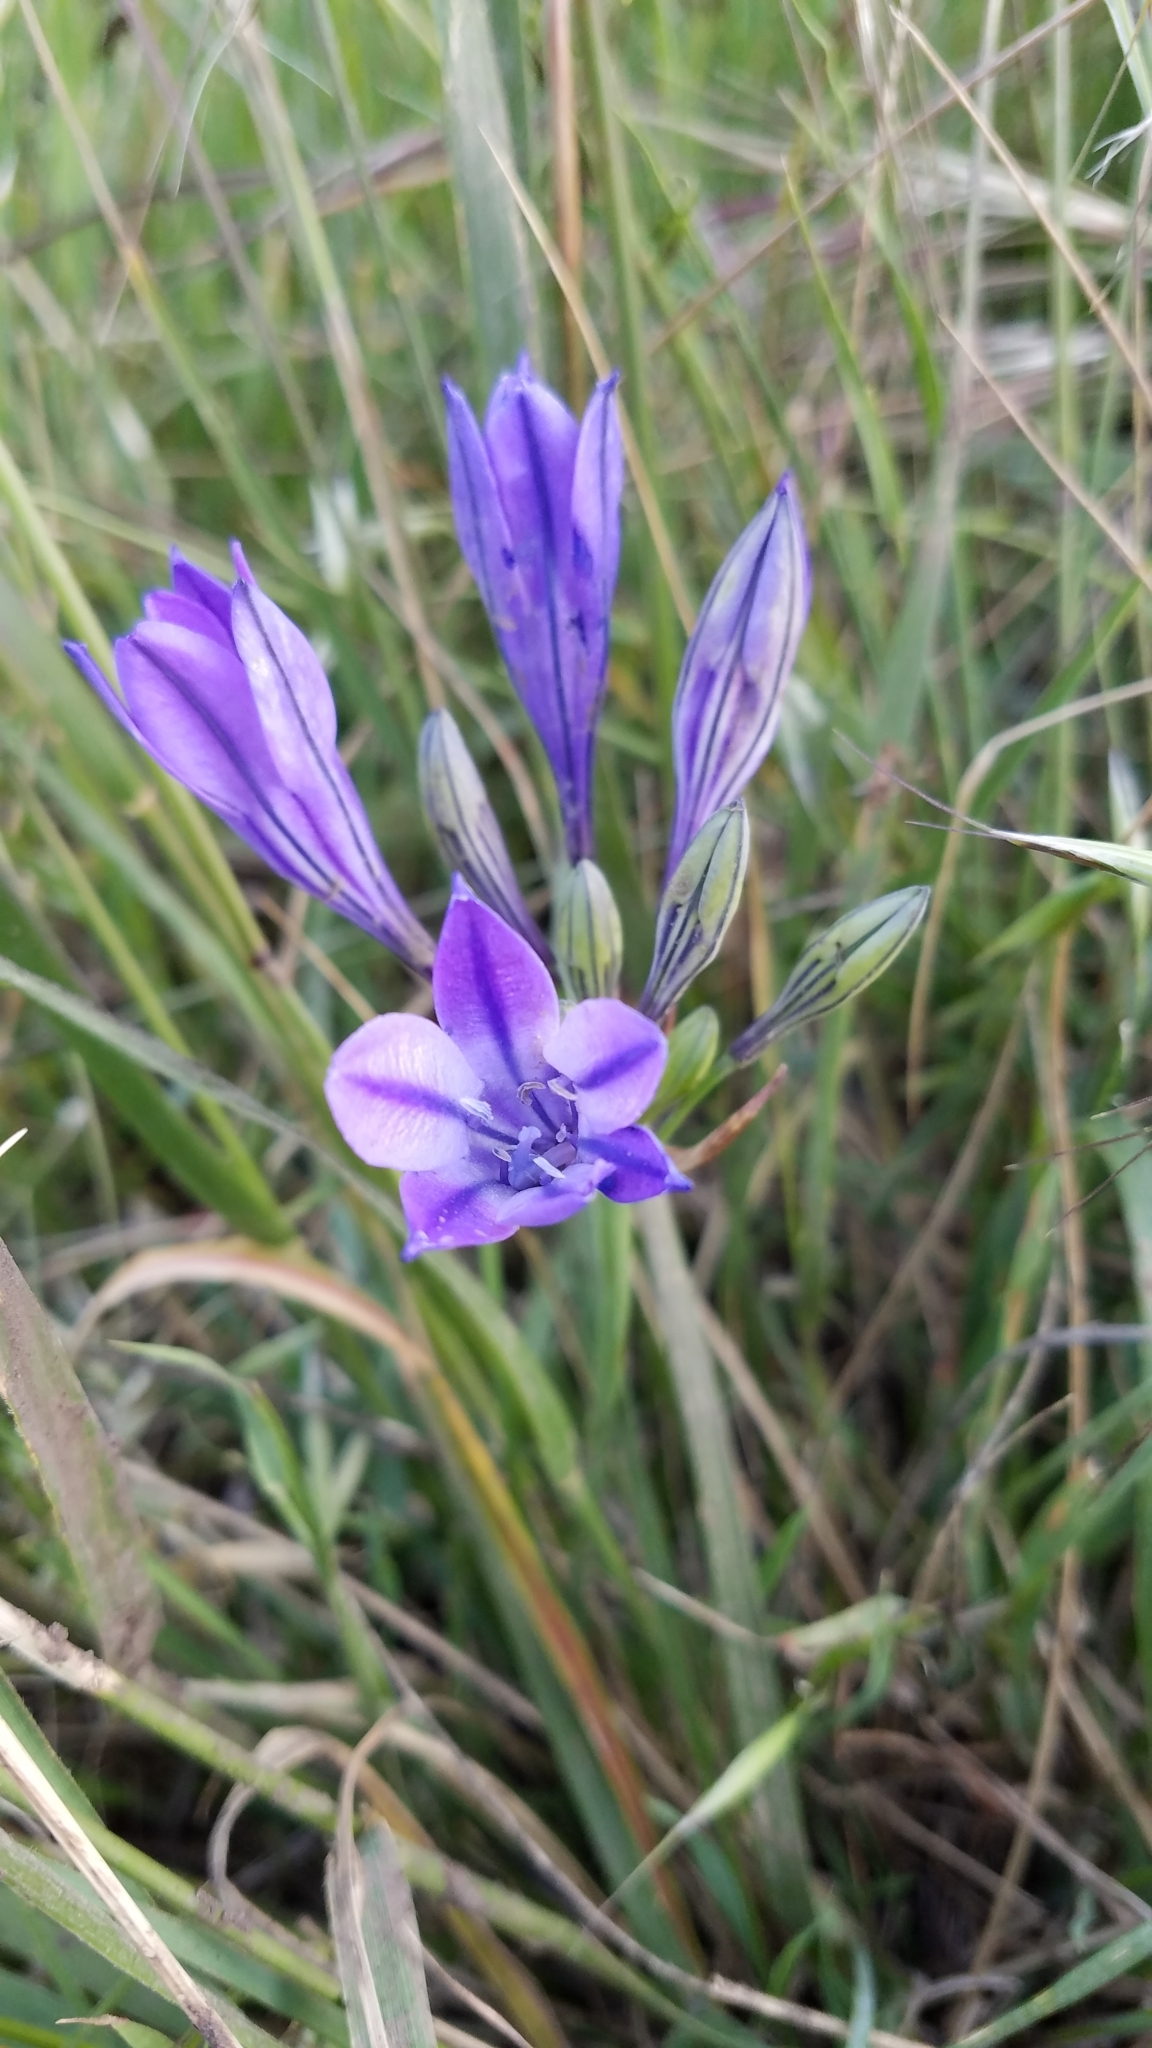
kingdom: Plantae
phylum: Tracheophyta
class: Liliopsida
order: Asparagales
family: Asparagaceae
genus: Triteleia
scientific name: Triteleia laxa
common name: Triplet-lily
